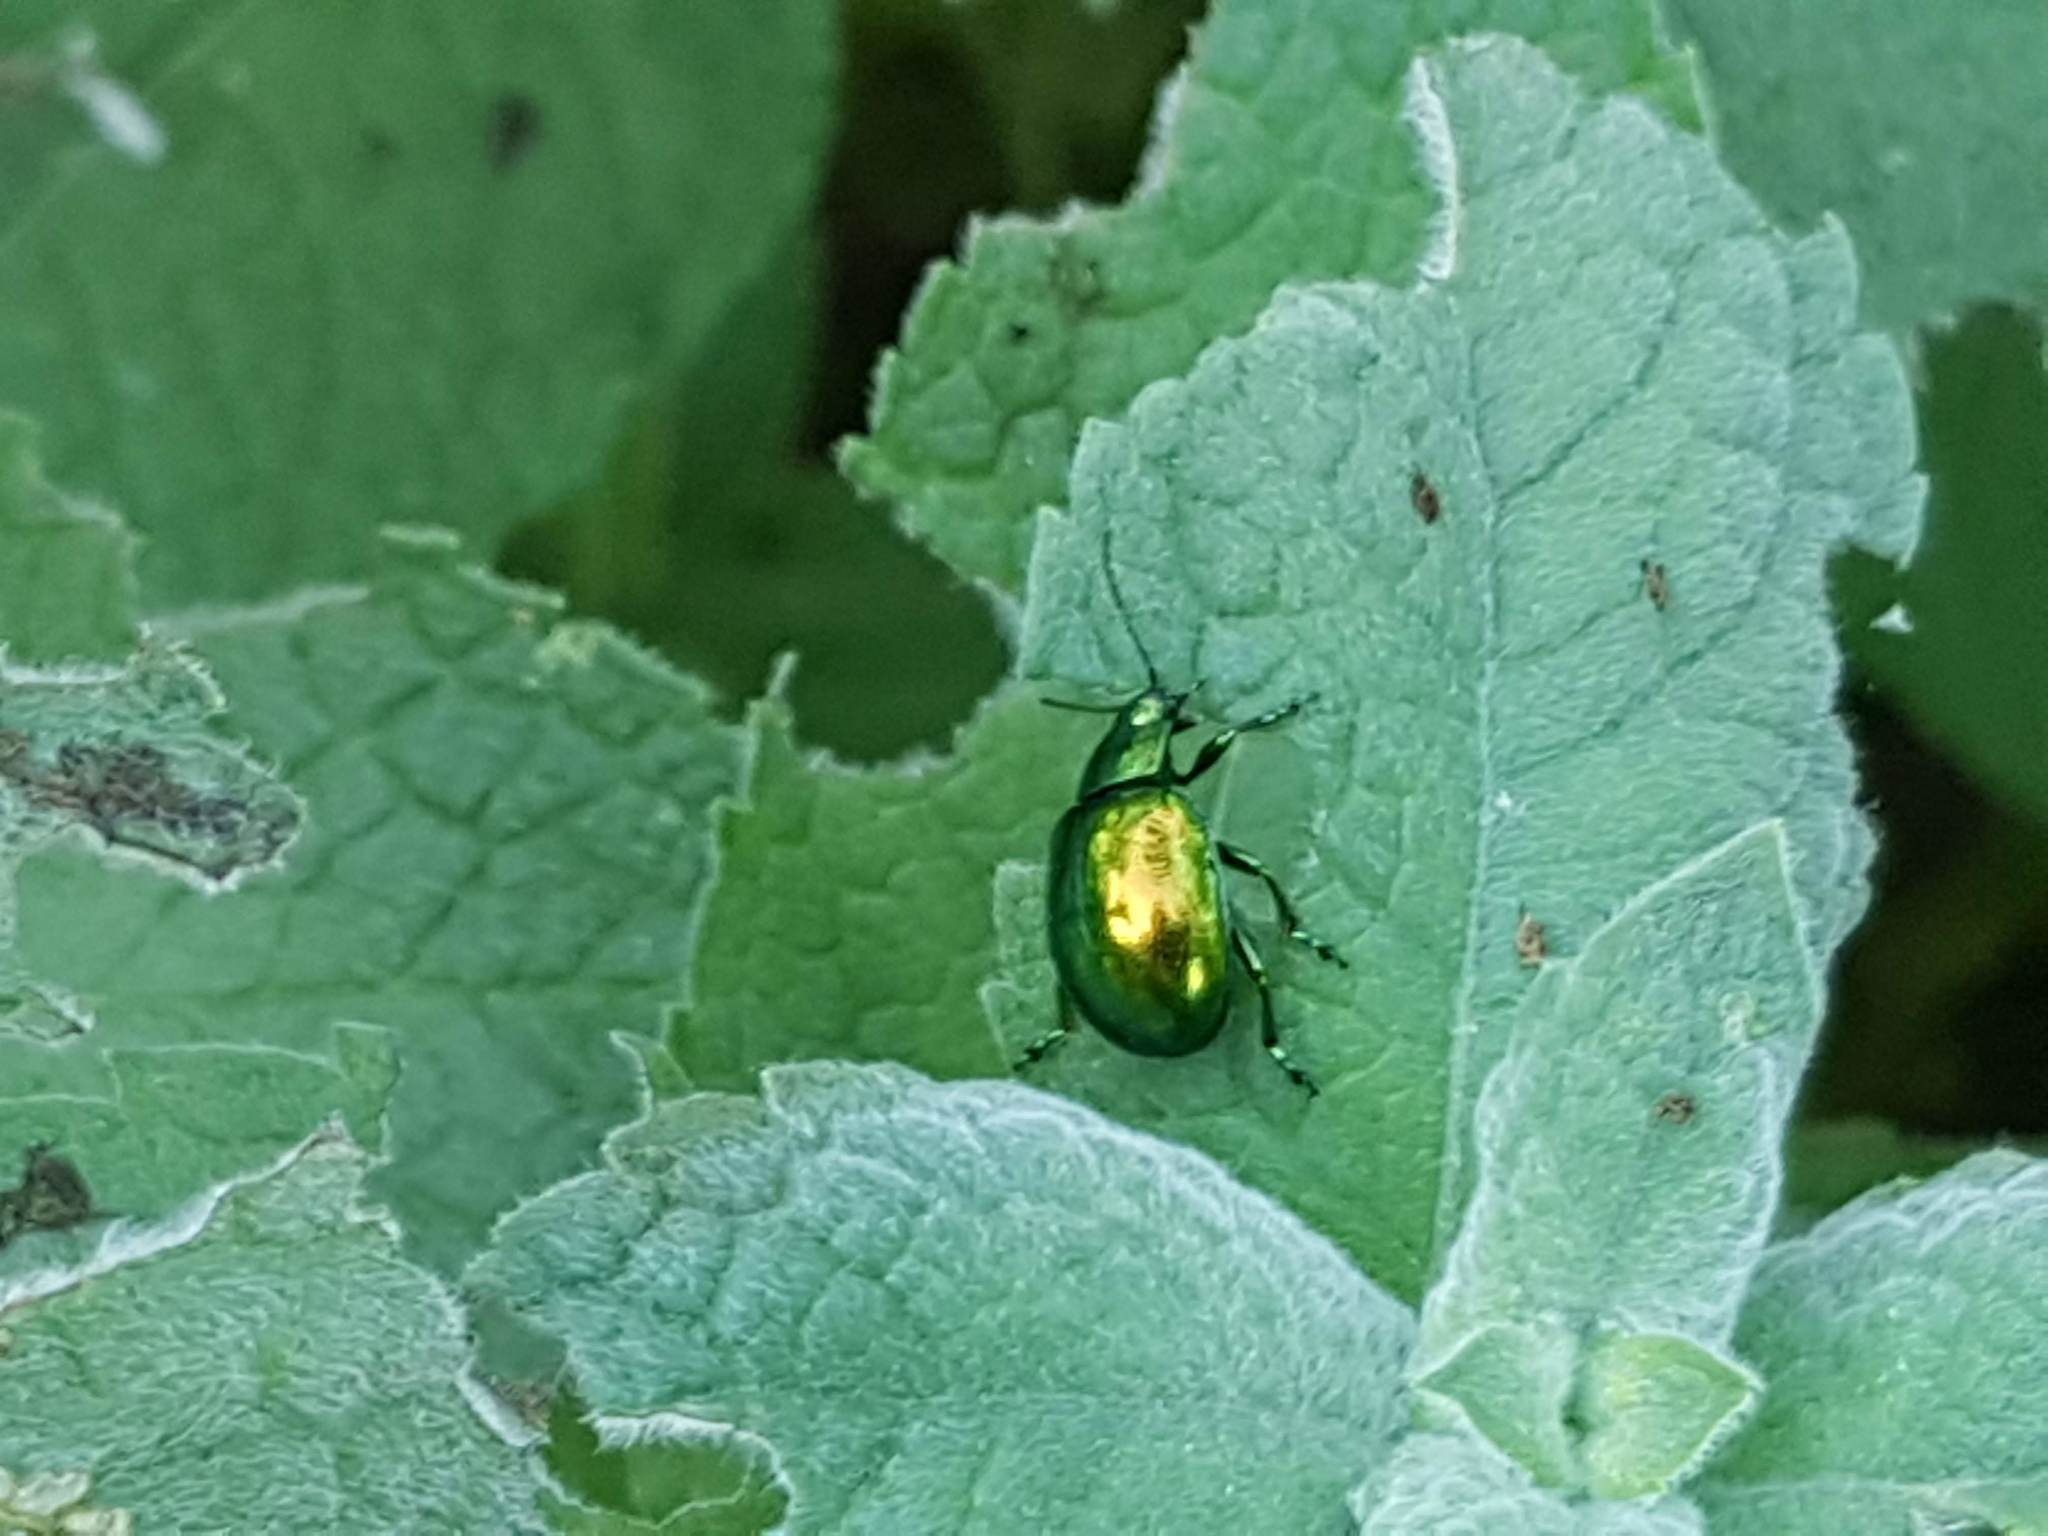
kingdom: Animalia
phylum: Arthropoda
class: Insecta
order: Coleoptera
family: Chrysomelidae
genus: Chrysolina
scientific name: Chrysolina herbacea
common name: Mint leaf beatle
